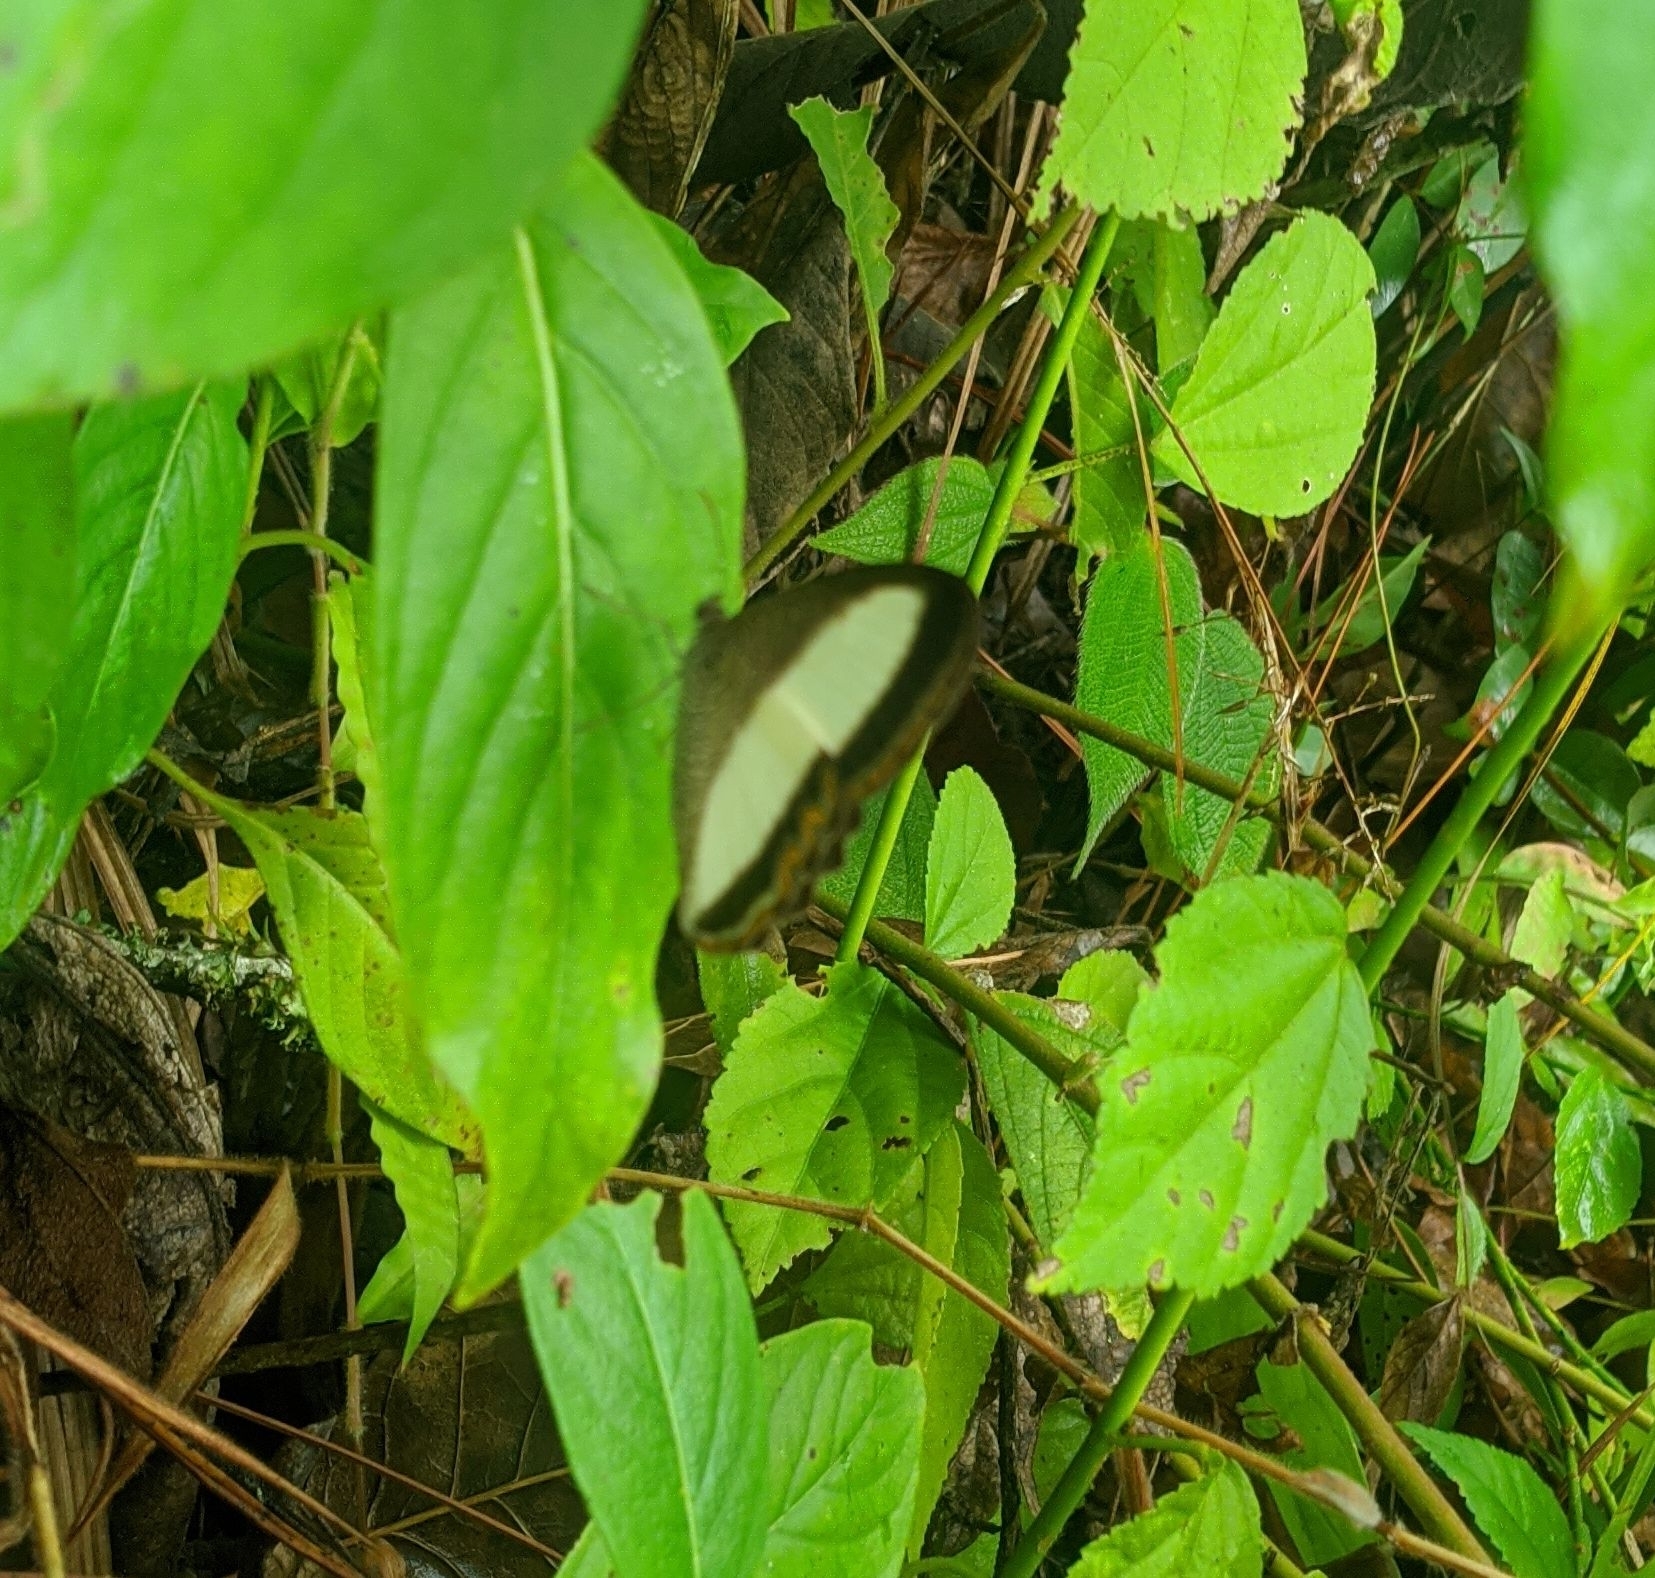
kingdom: Animalia
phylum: Arthropoda
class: Insecta
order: Lepidoptera
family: Nymphalidae
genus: Oressinoma
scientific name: Oressinoma typhla
